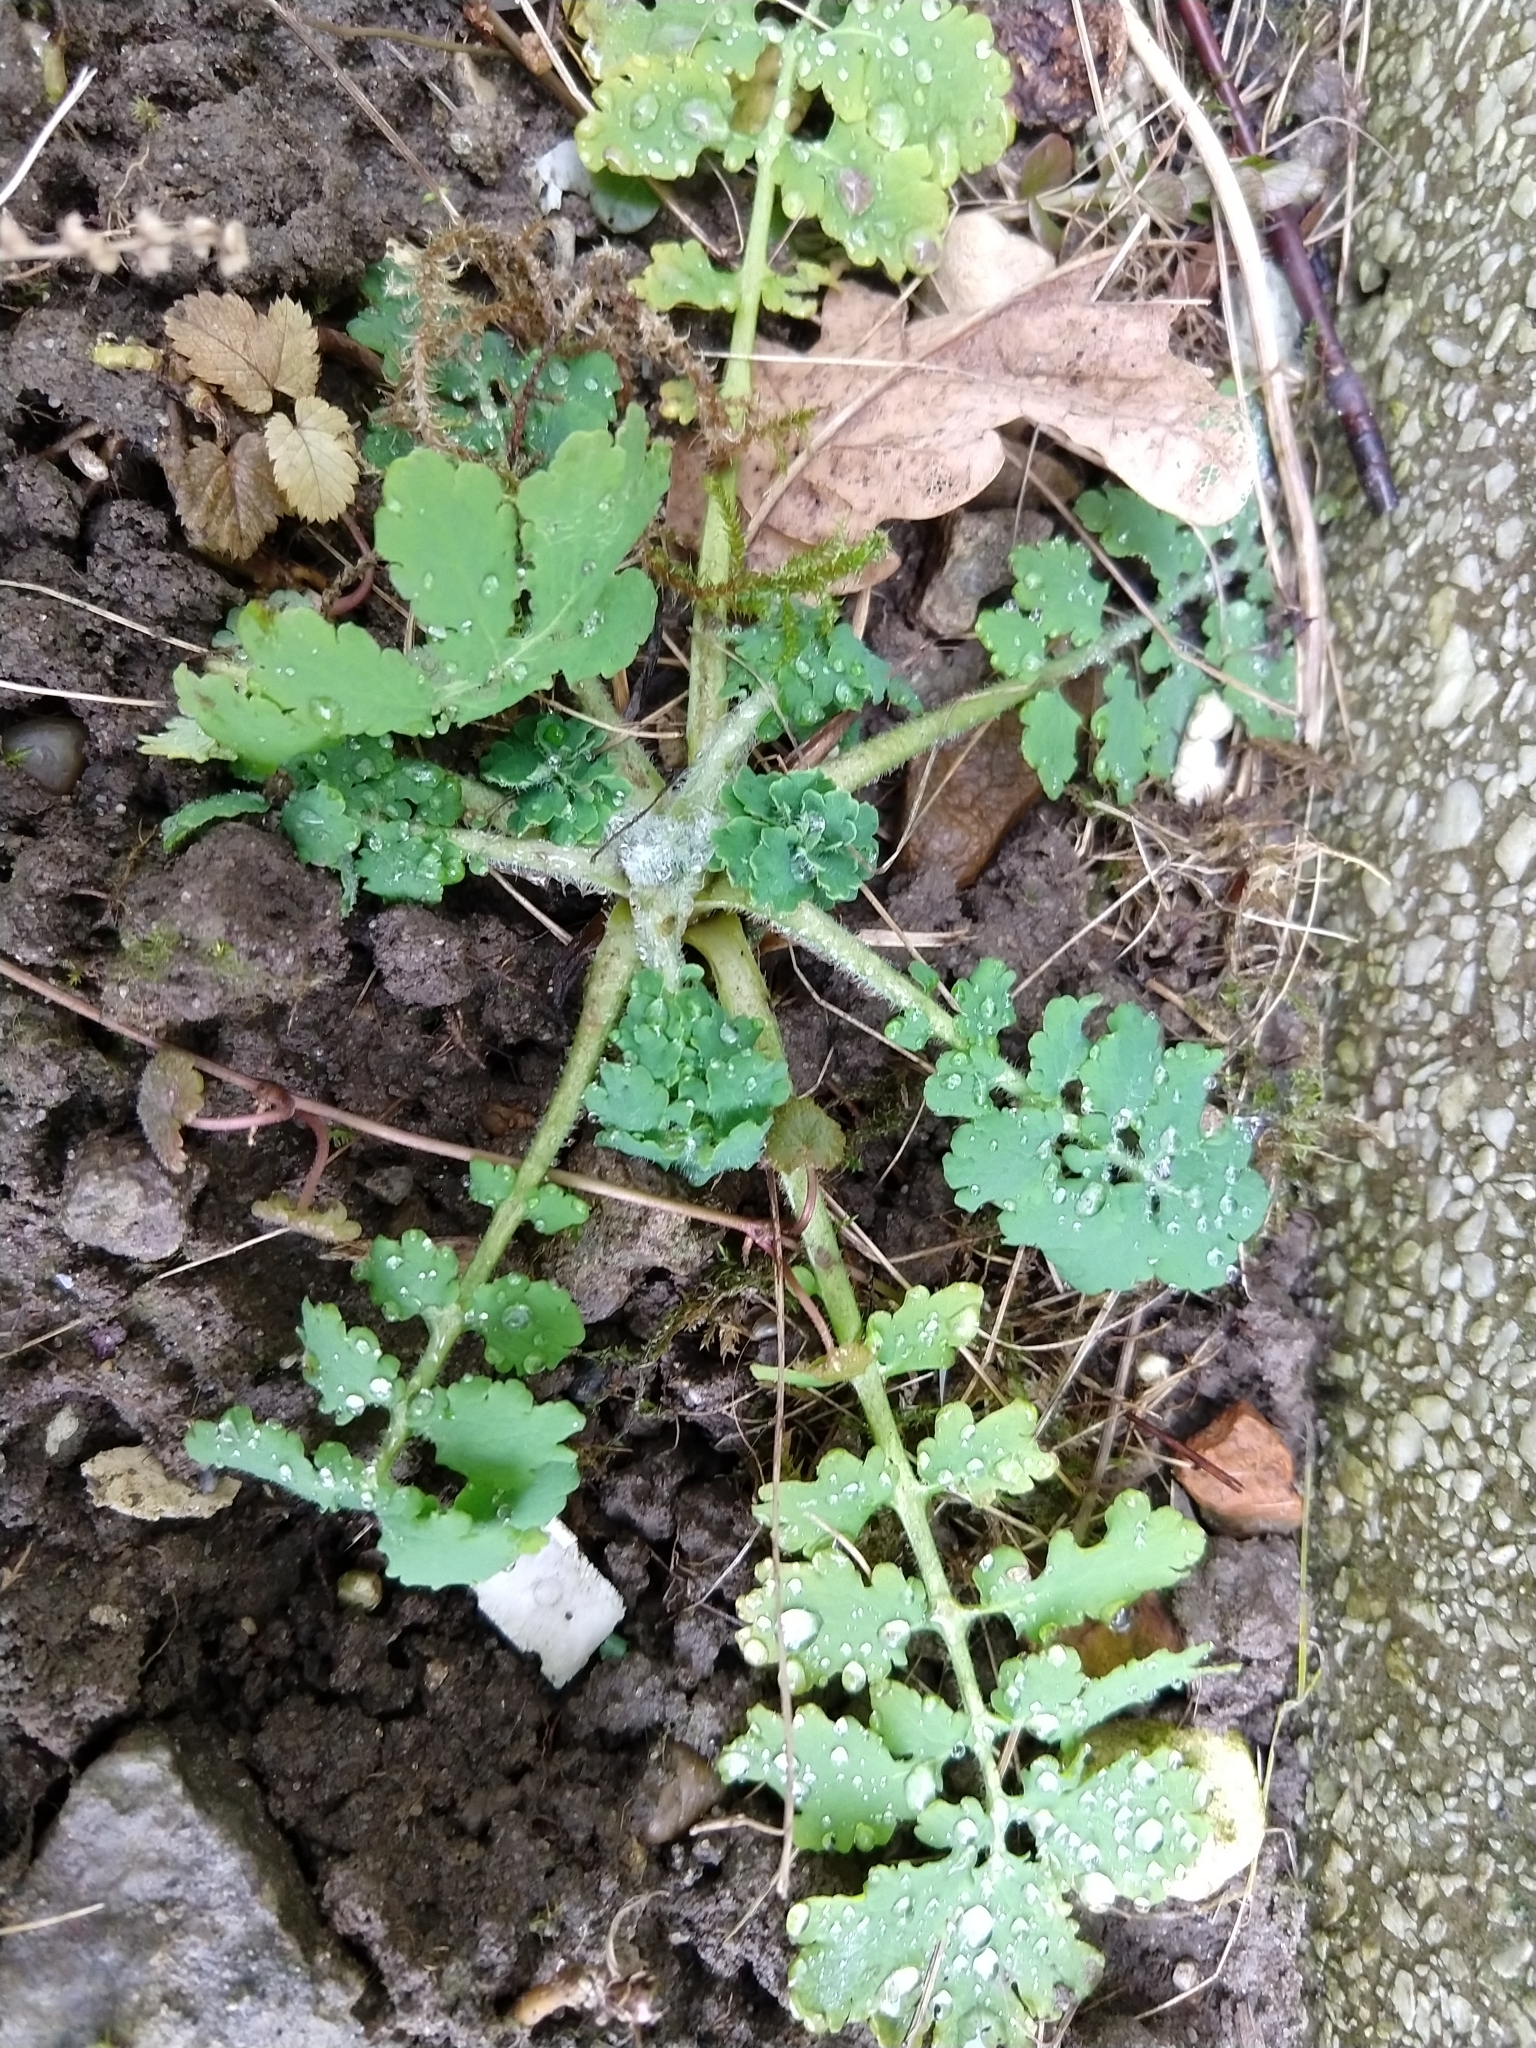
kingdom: Plantae
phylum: Tracheophyta
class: Magnoliopsida
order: Ranunculales
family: Papaveraceae
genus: Chelidonium
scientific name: Chelidonium majus
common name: Greater celandine
